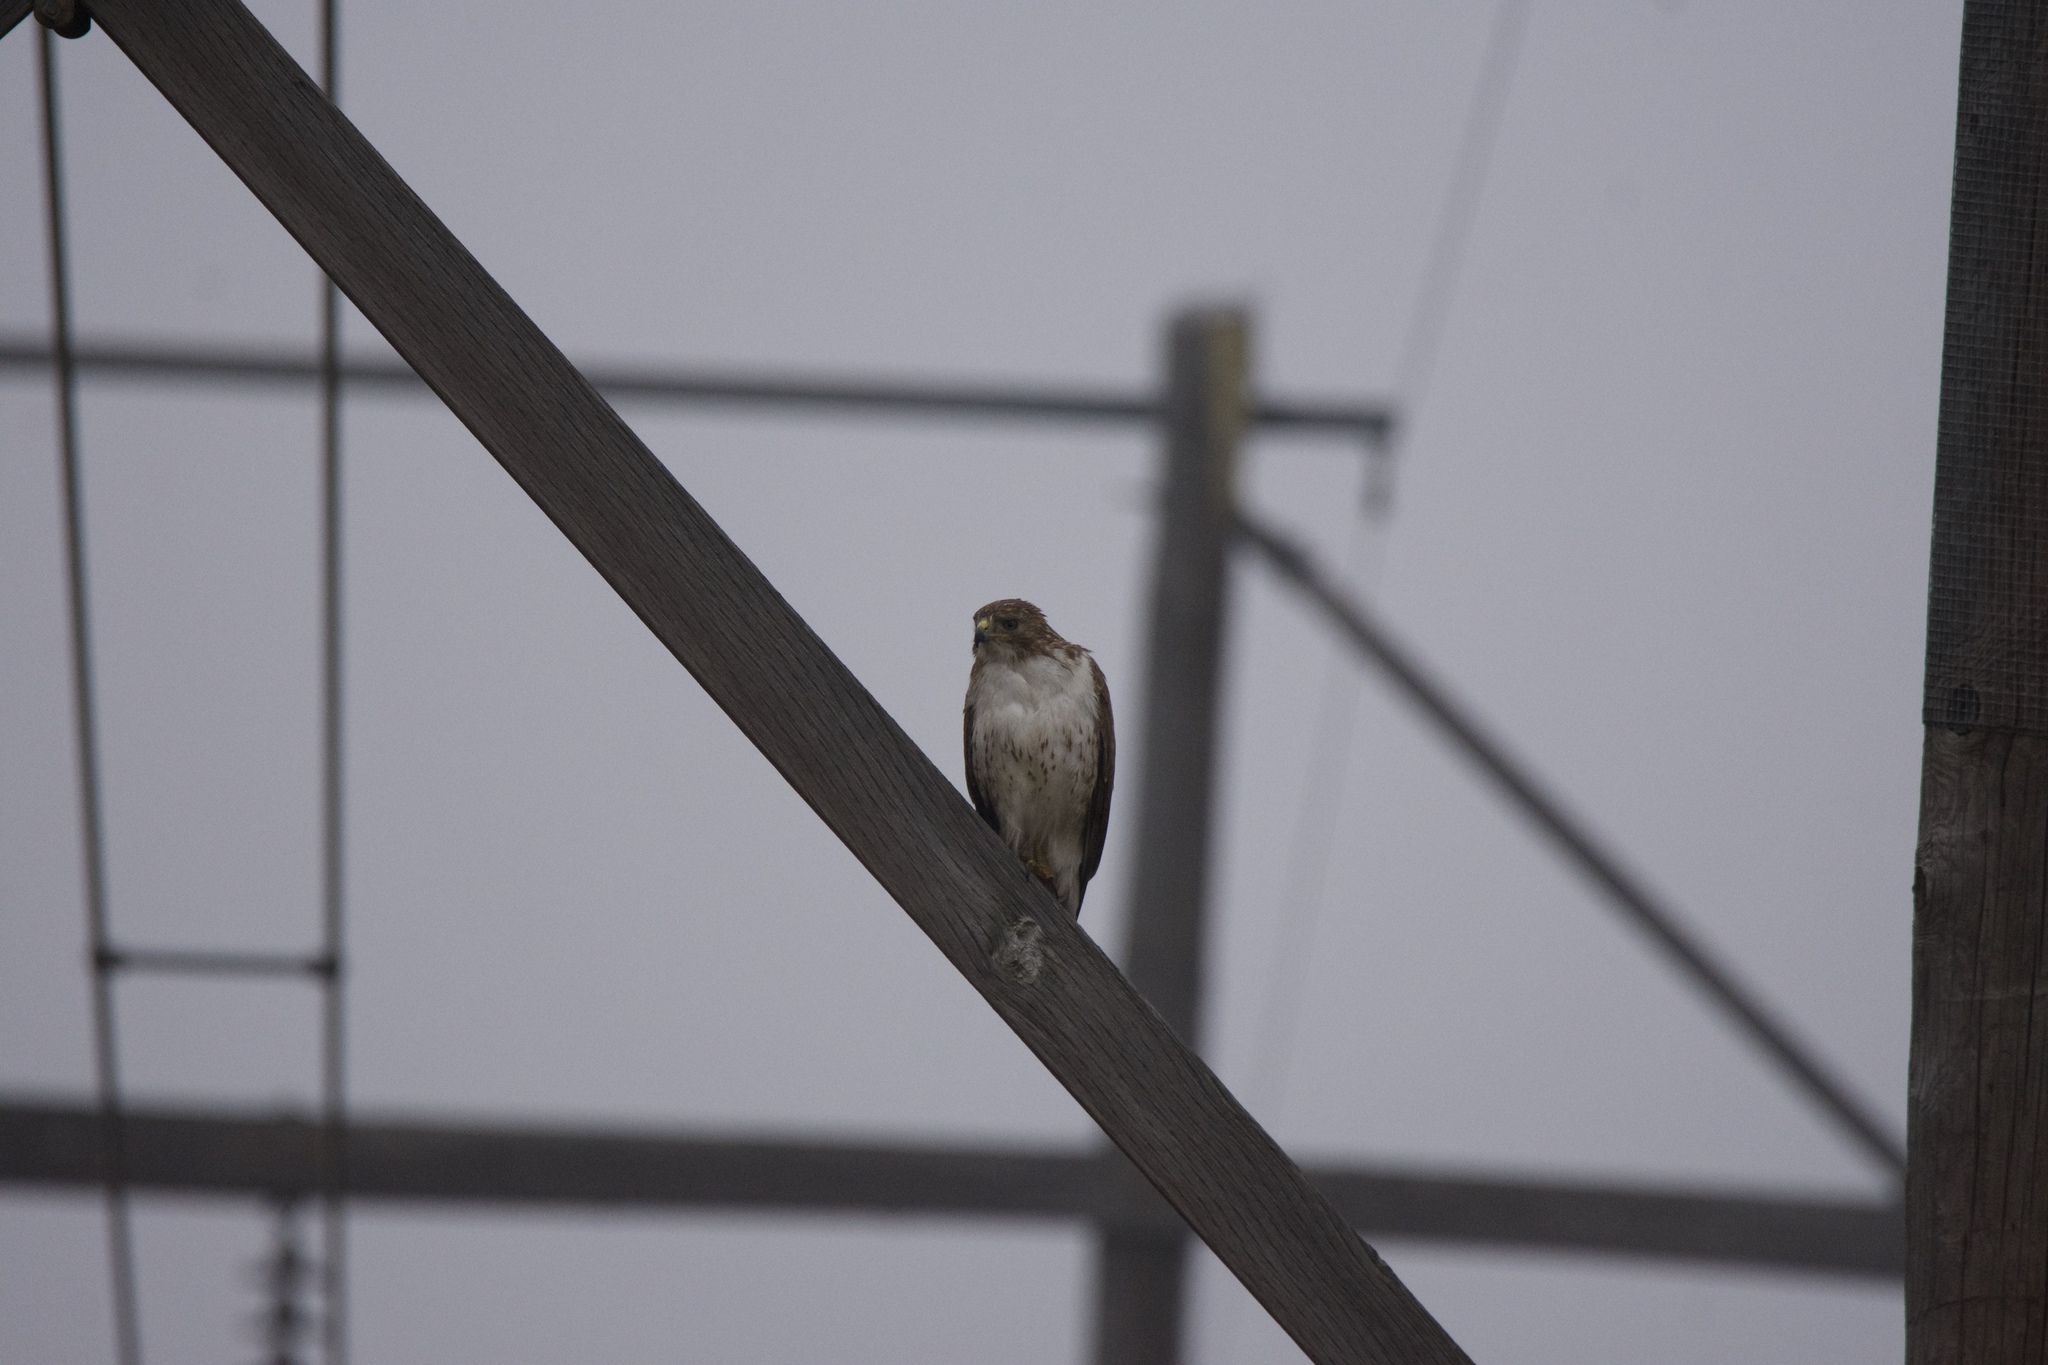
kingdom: Animalia
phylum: Chordata
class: Aves
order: Accipitriformes
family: Accipitridae
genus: Buteo
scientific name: Buteo jamaicensis
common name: Red-tailed hawk
